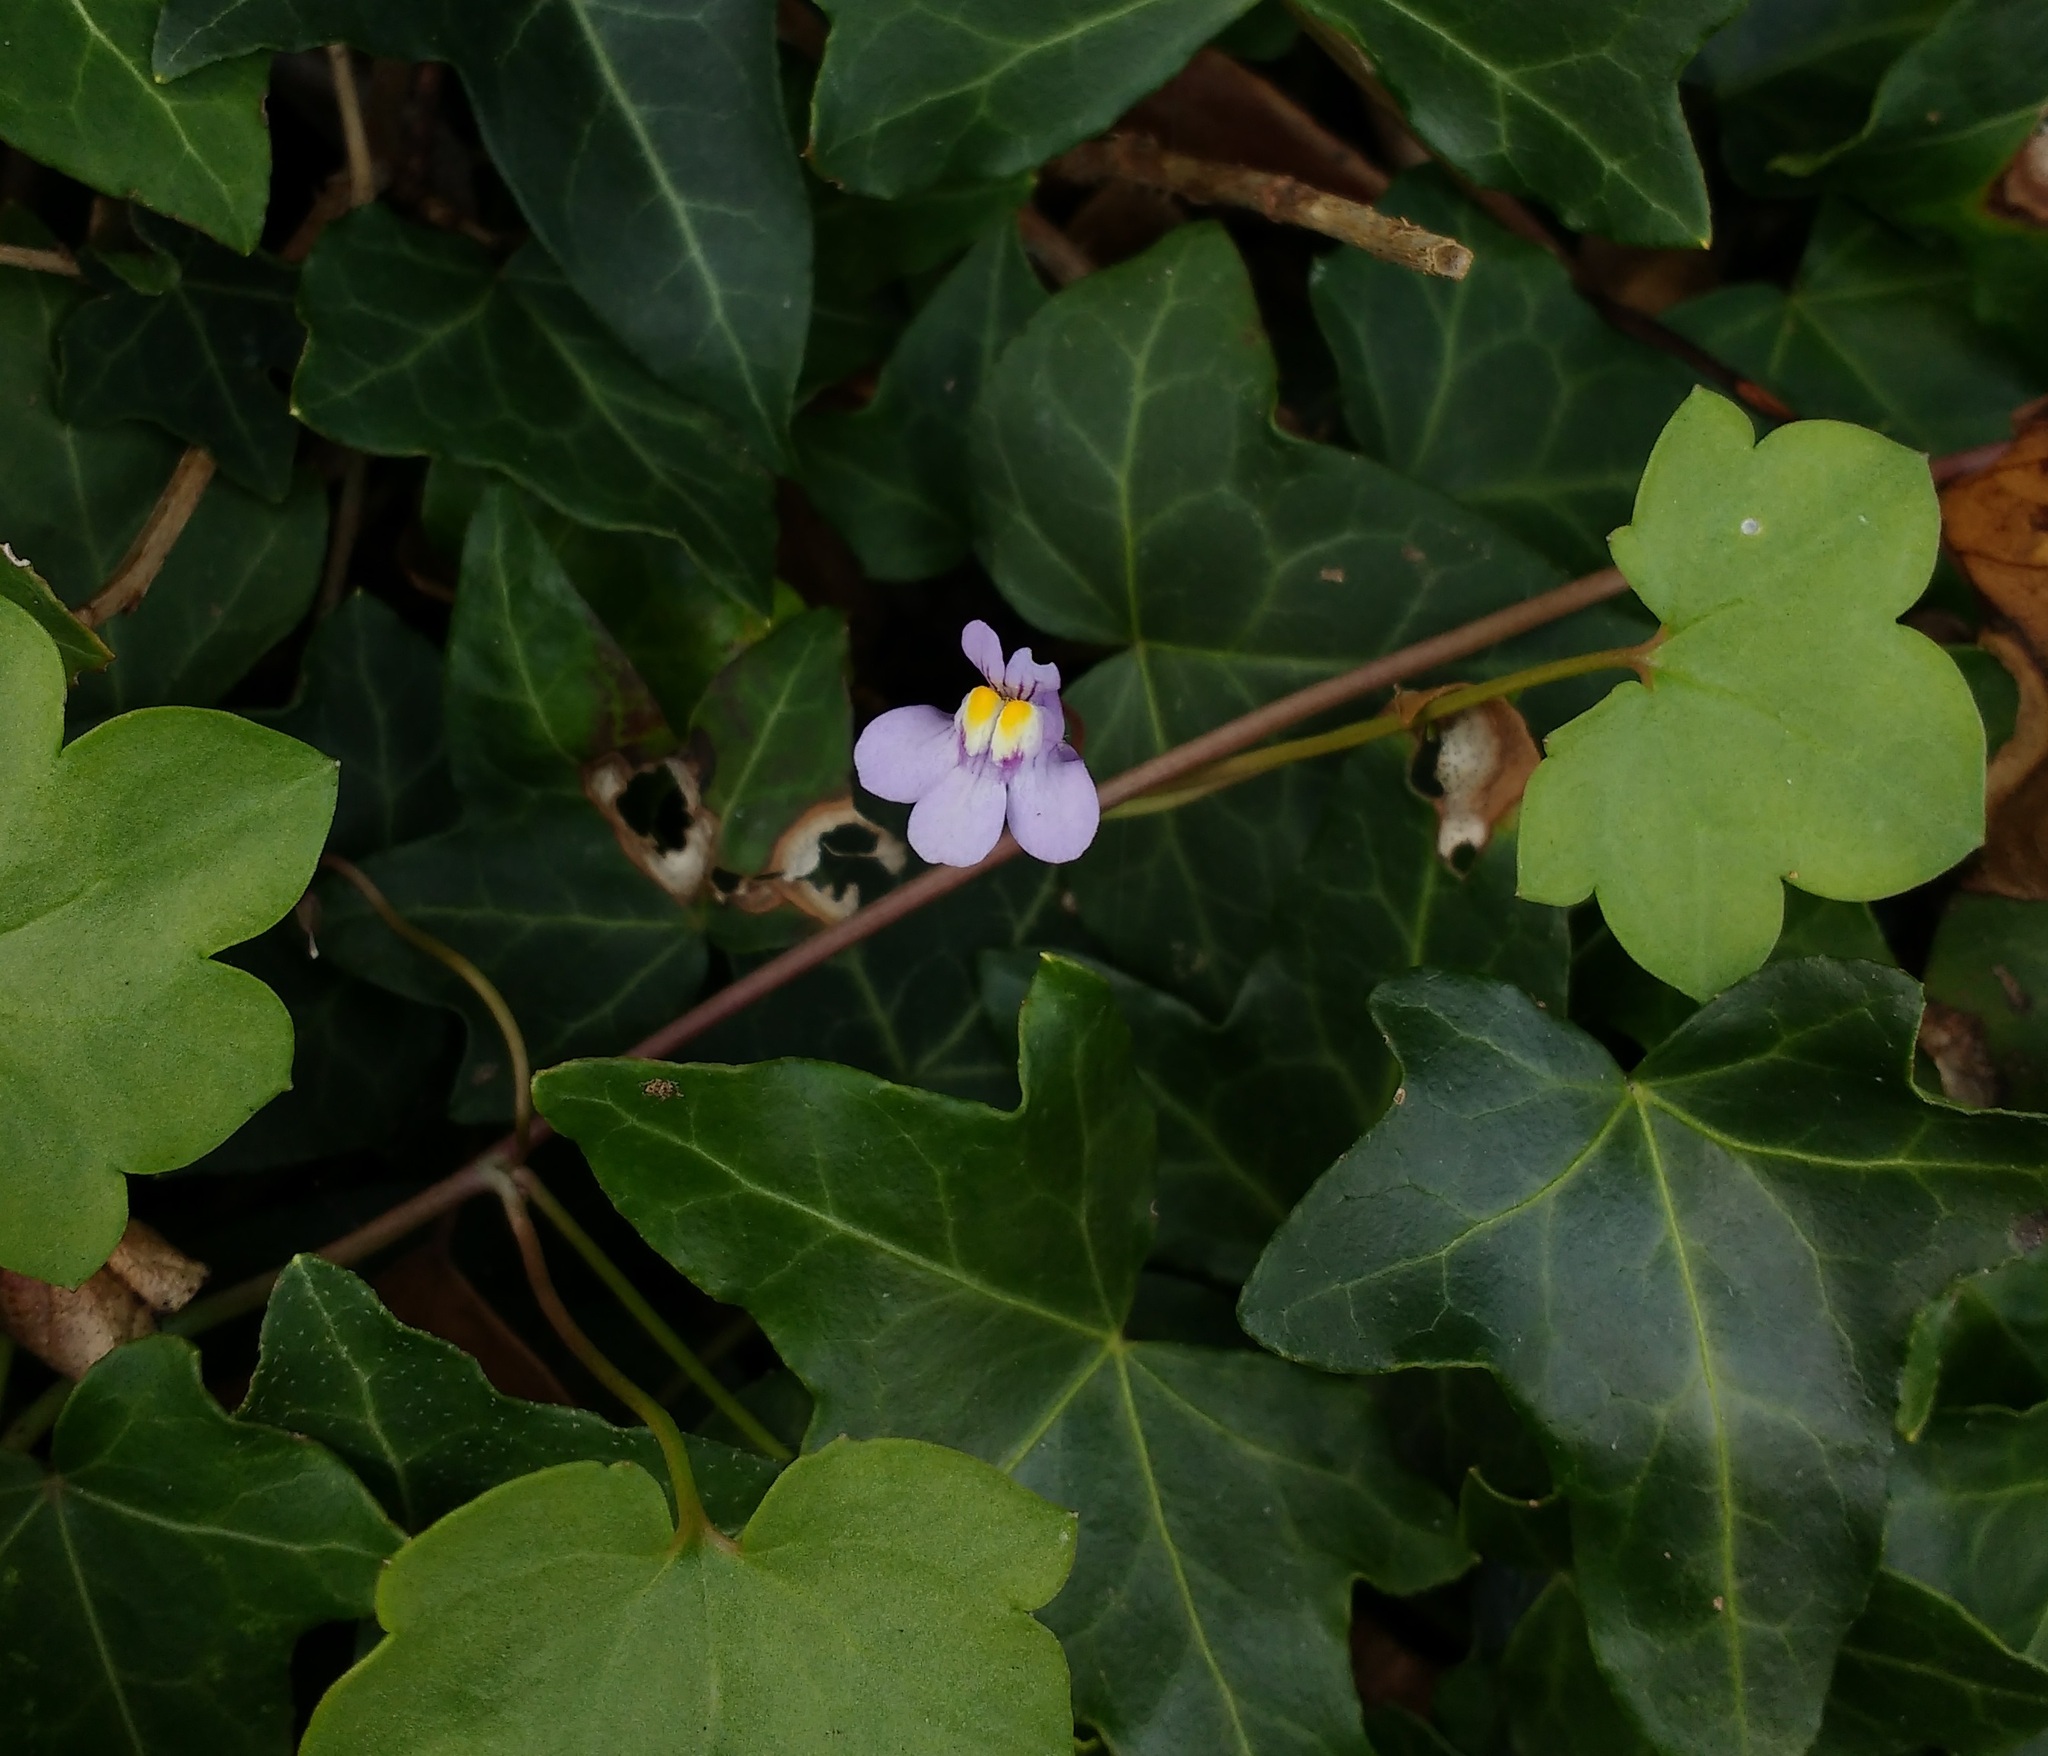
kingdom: Plantae
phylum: Tracheophyta
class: Magnoliopsida
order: Lamiales
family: Plantaginaceae
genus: Cymbalaria
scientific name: Cymbalaria muralis
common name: Ivy-leaved toadflax
